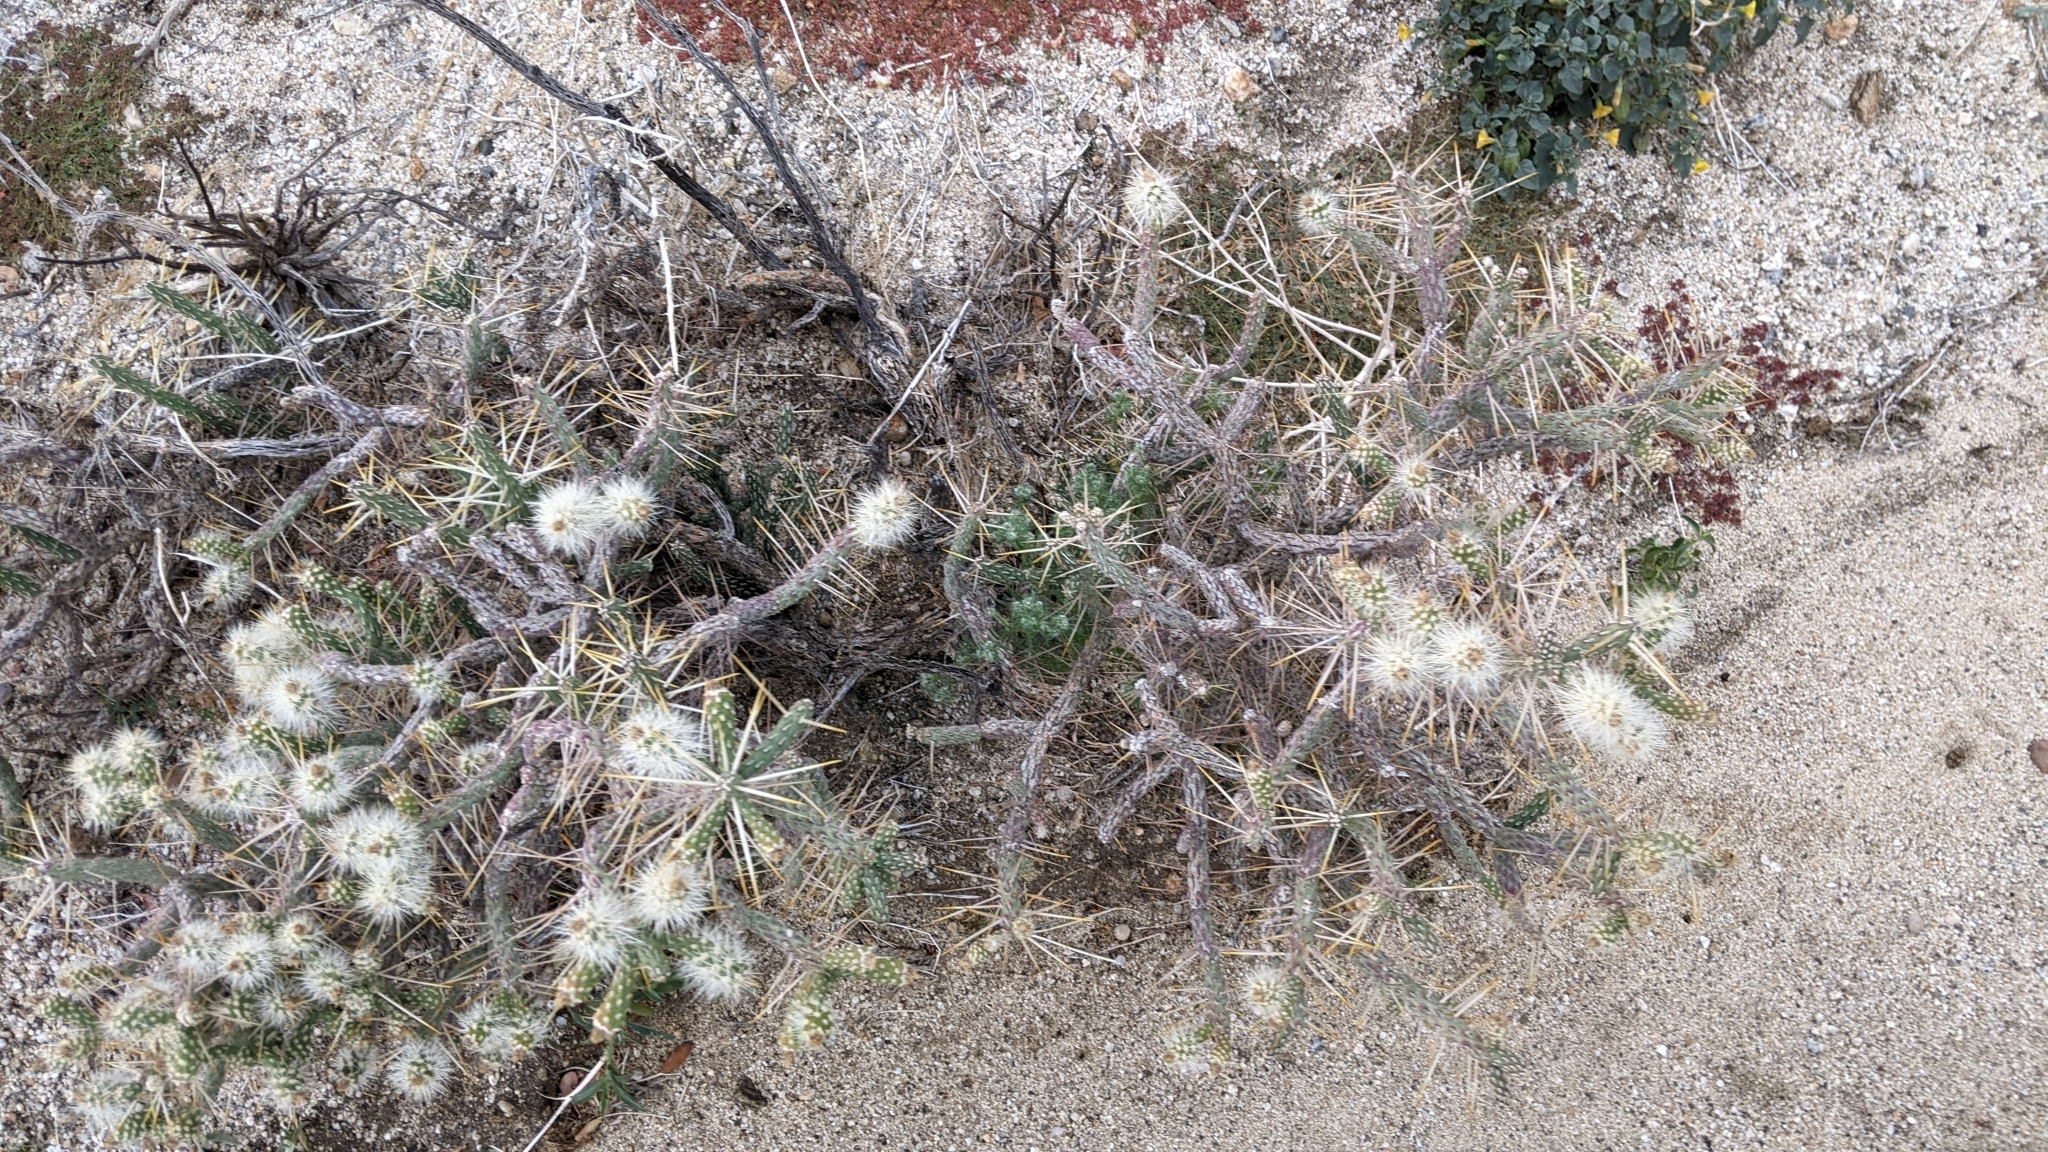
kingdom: Plantae
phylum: Tracheophyta
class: Magnoliopsida
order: Caryophyllales
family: Cactaceae
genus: Cylindropuntia
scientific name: Cylindropuntia ramosissima
